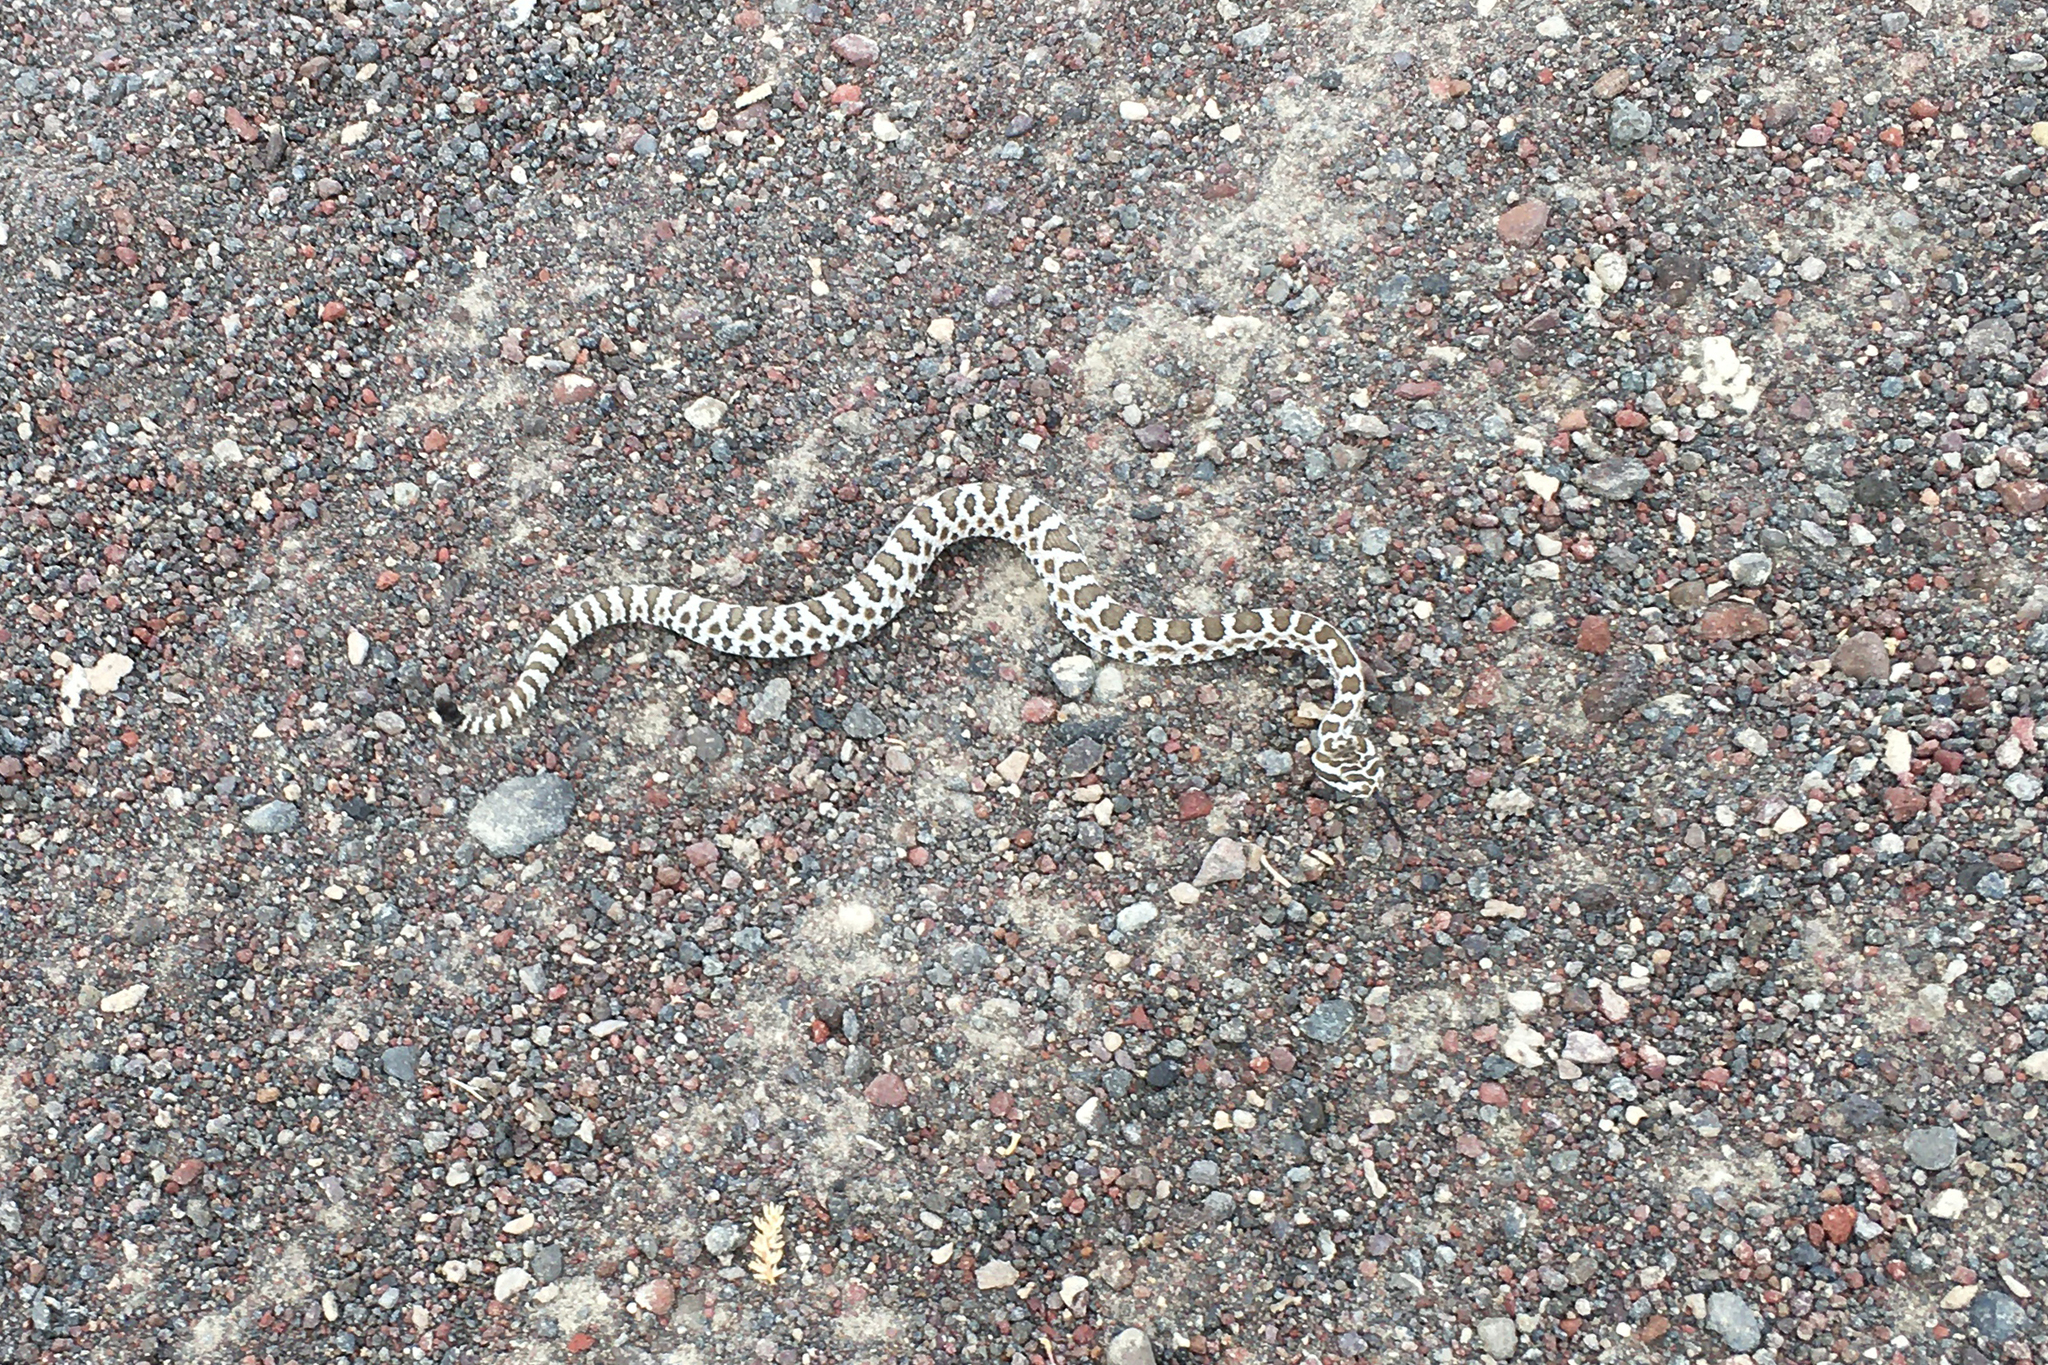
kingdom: Animalia
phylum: Chordata
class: Squamata
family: Viperidae
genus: Crotalus
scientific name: Crotalus oreganus
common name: Abyssus
